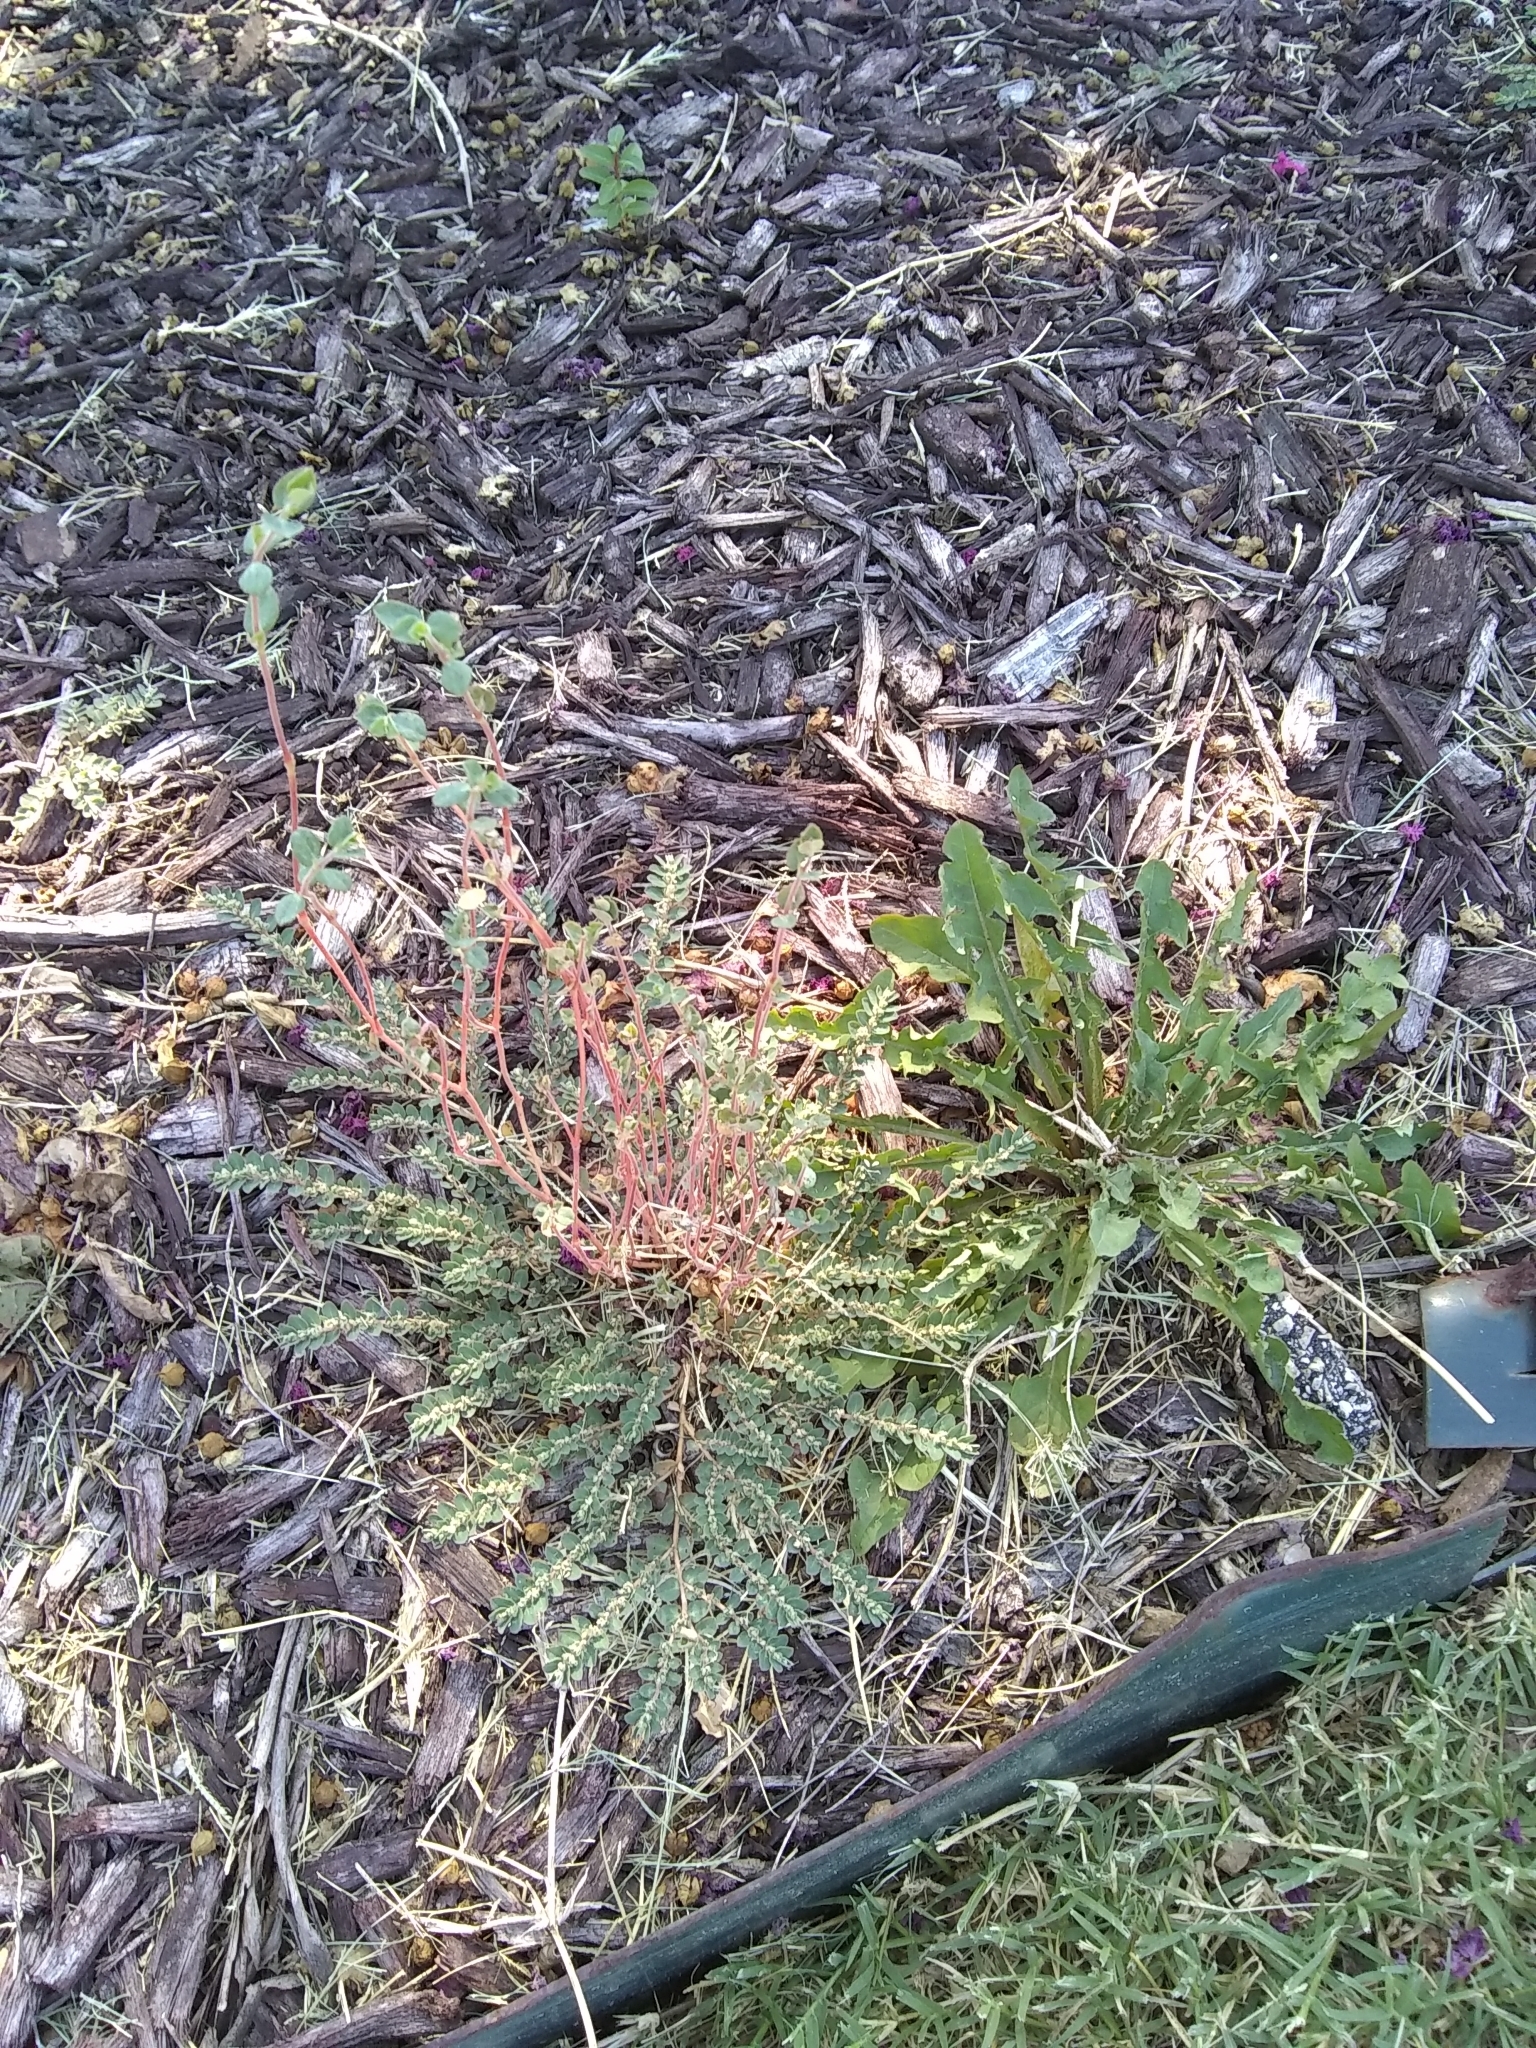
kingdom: Plantae
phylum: Tracheophyta
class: Magnoliopsida
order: Malpighiales
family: Euphorbiaceae
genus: Euphorbia
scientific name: Euphorbia prostrata
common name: Prostrate sandmat
